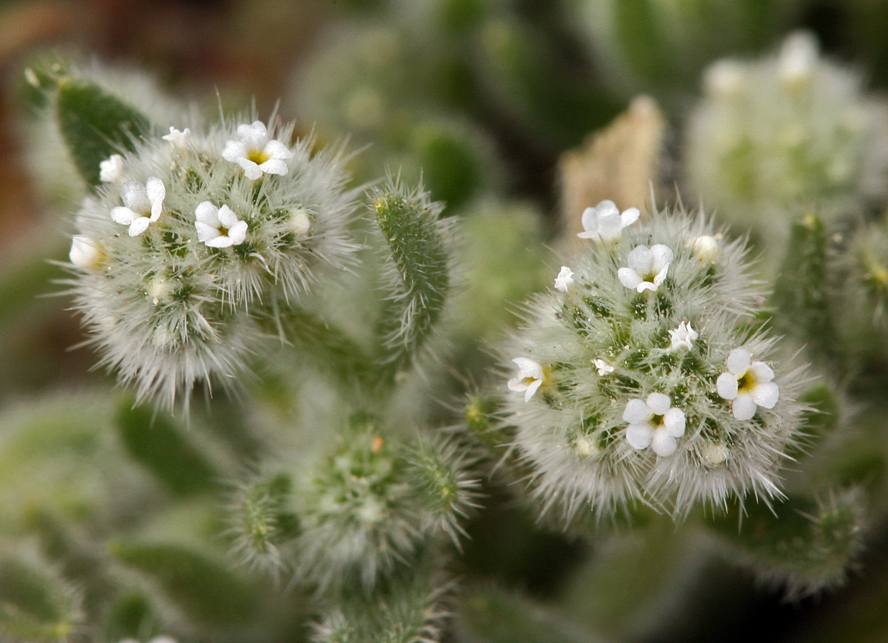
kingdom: Plantae
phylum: Tracheophyta
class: Magnoliopsida
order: Boraginales
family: Boraginaceae
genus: Cryptantha
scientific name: Cryptantha gracilis
